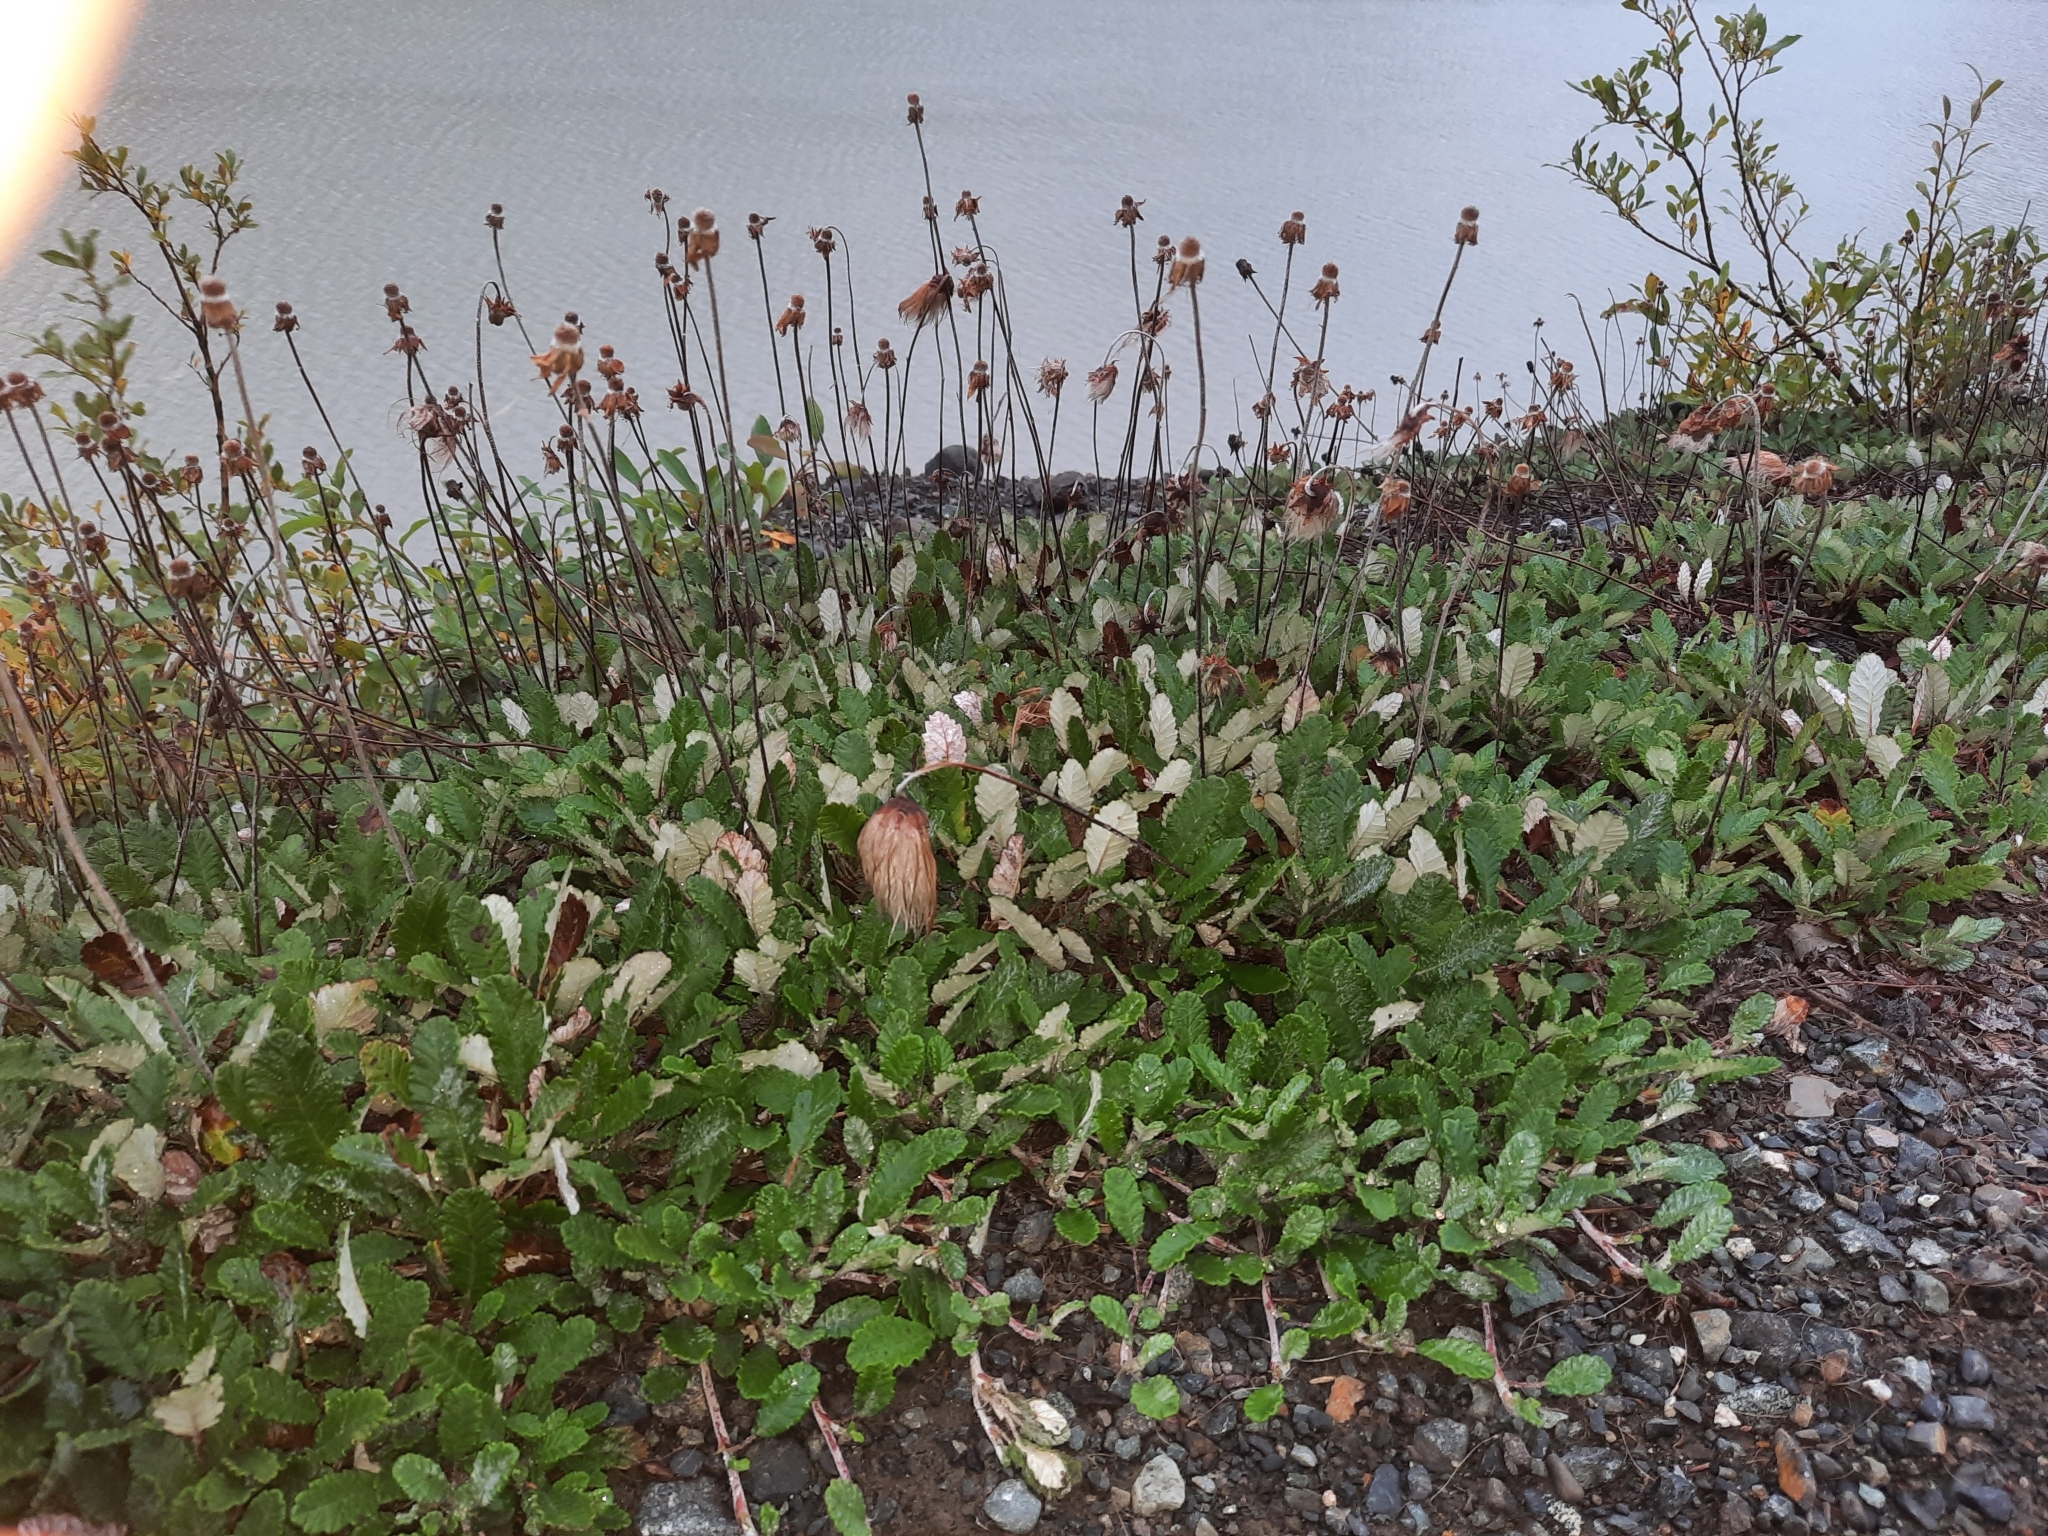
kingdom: Plantae
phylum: Tracheophyta
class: Magnoliopsida
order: Rosales
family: Rosaceae
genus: Dryas
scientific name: Dryas drummondii
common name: Drummond's dryad
